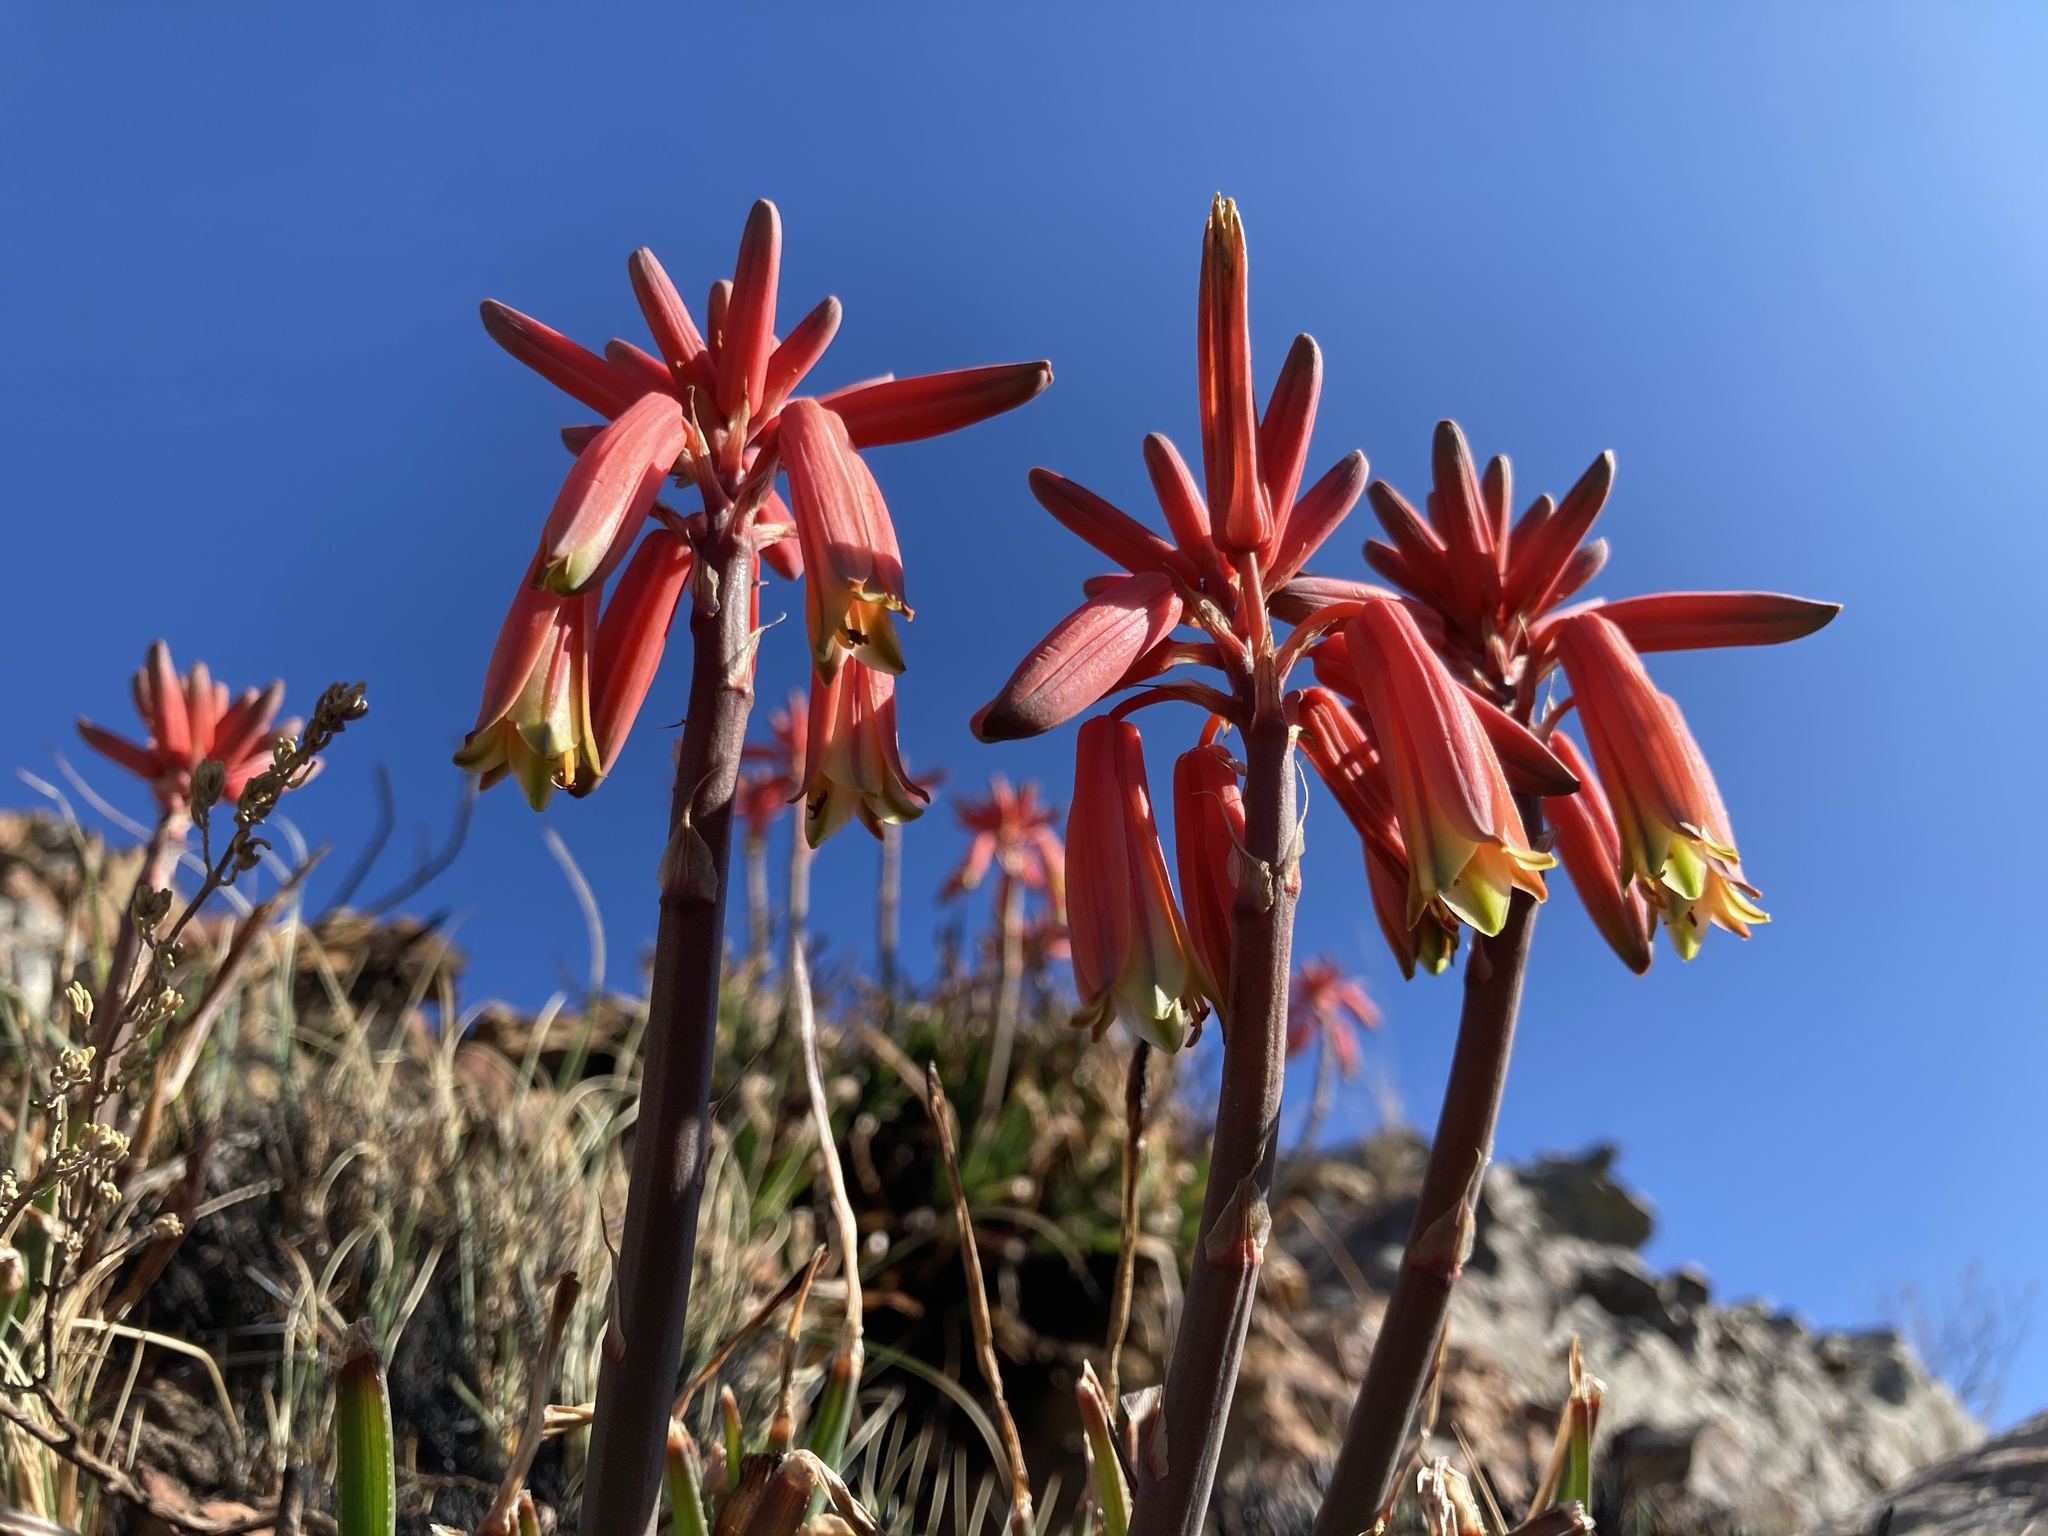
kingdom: Plantae
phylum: Tracheophyta
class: Liliopsida
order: Asparagales
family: Asphodelaceae
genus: Aloe
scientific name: Aloe chortolirioides
